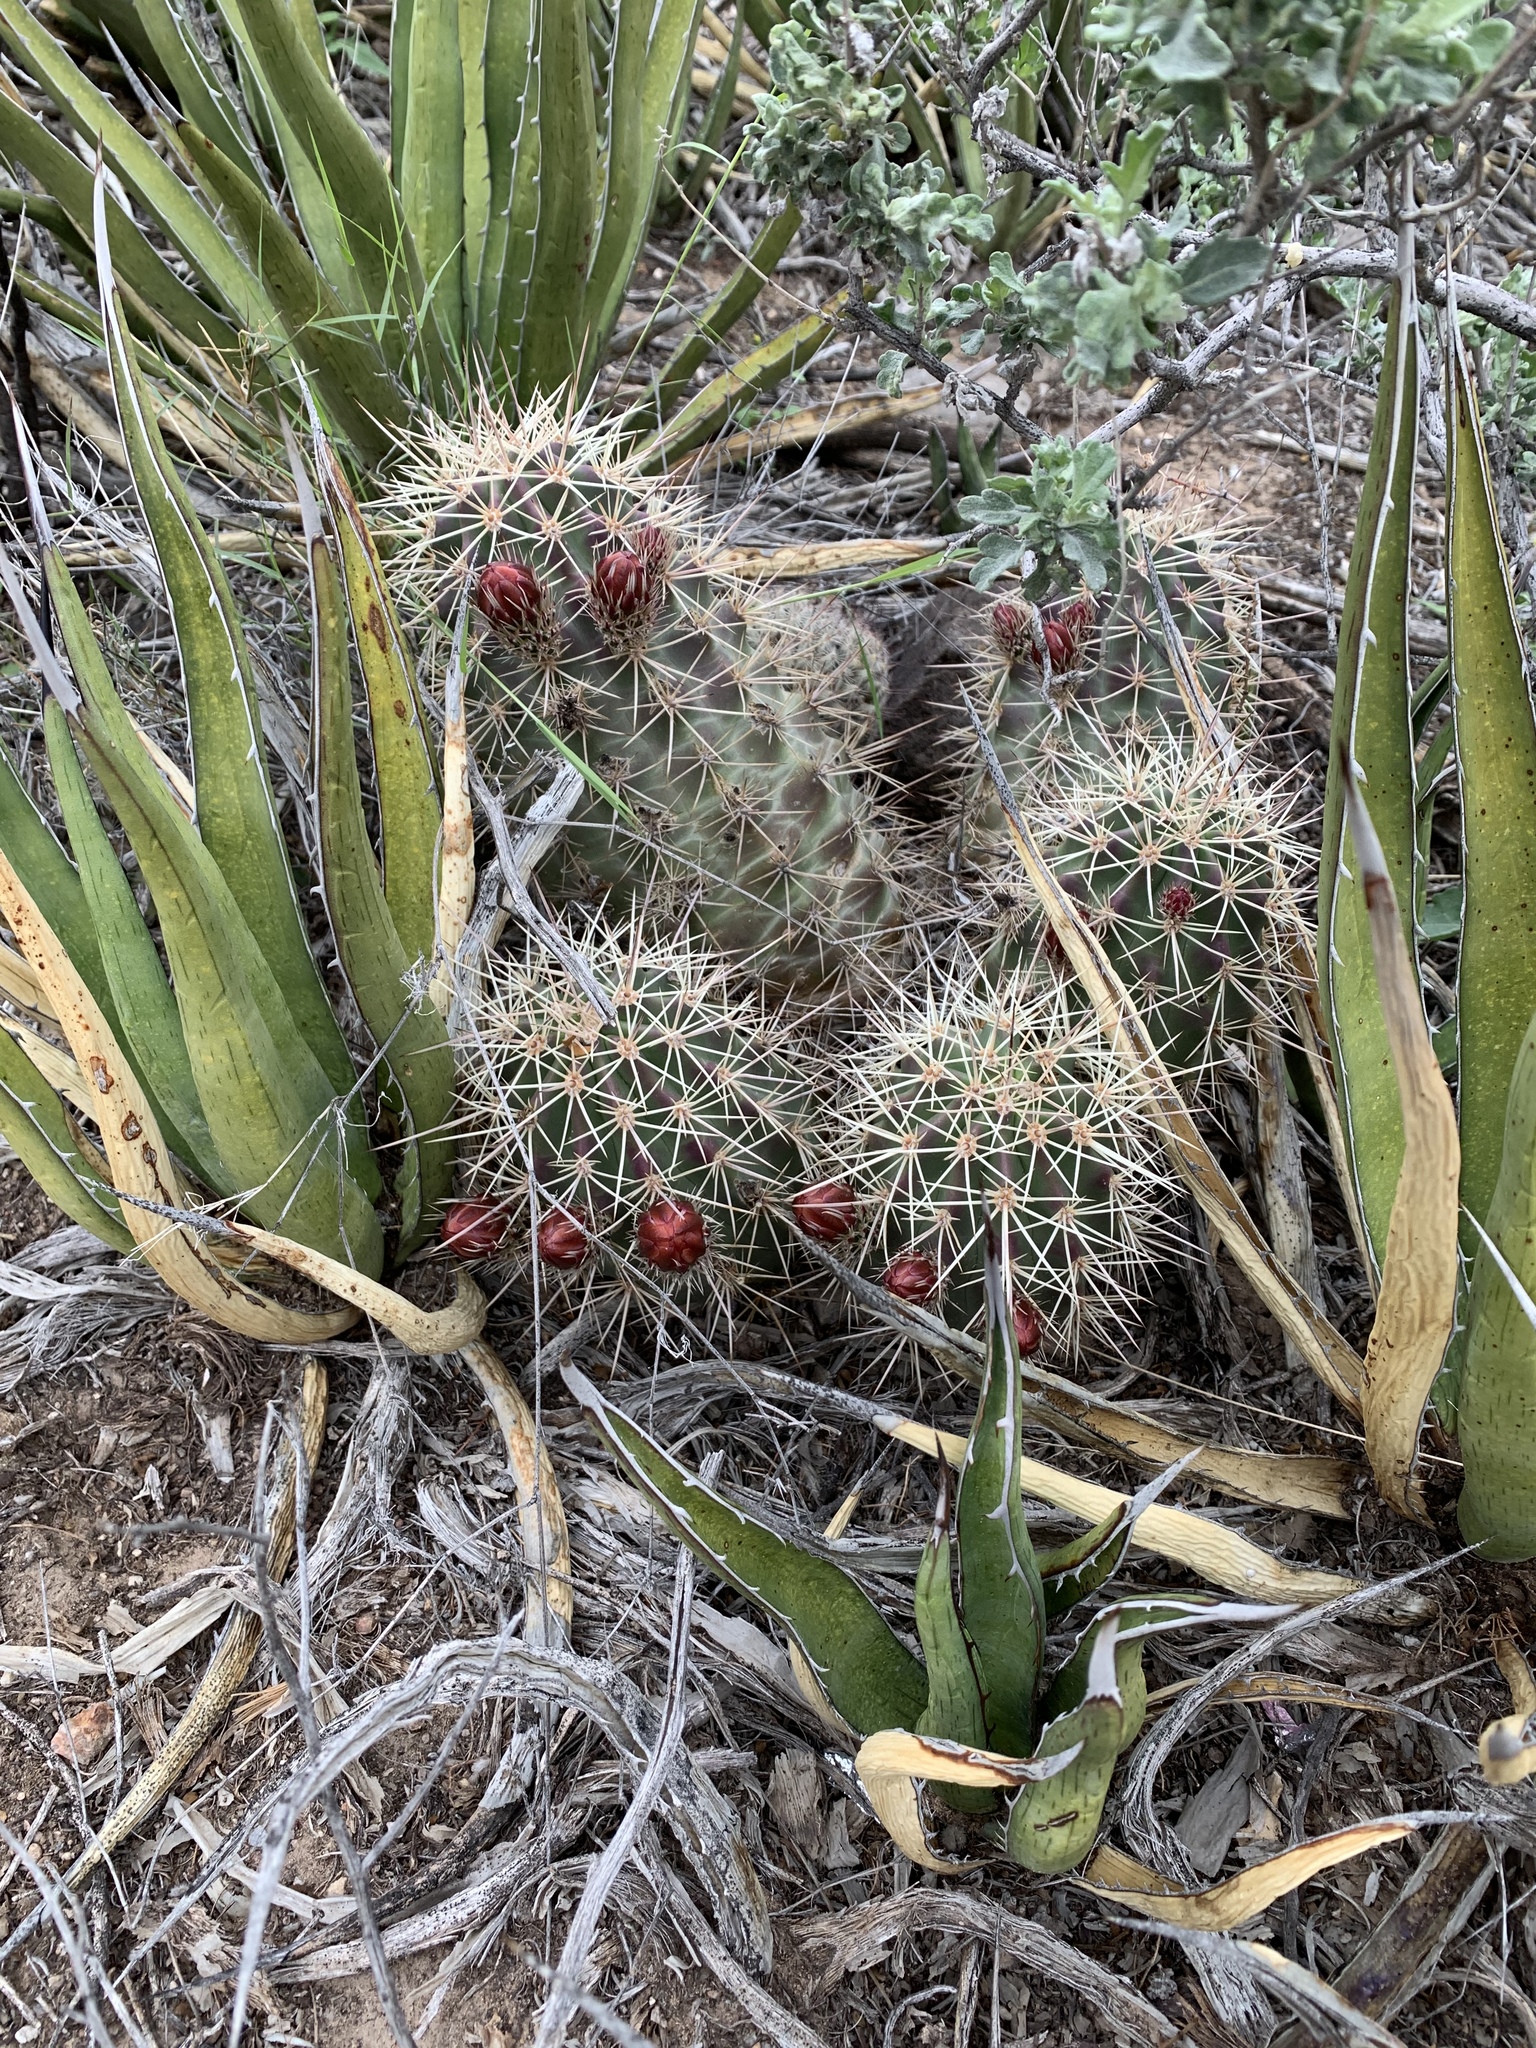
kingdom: Plantae
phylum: Tracheophyta
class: Magnoliopsida
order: Caryophyllales
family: Cactaceae
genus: Echinocereus
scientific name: Echinocereus coccineus
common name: Scarlet hedgehog cactus
